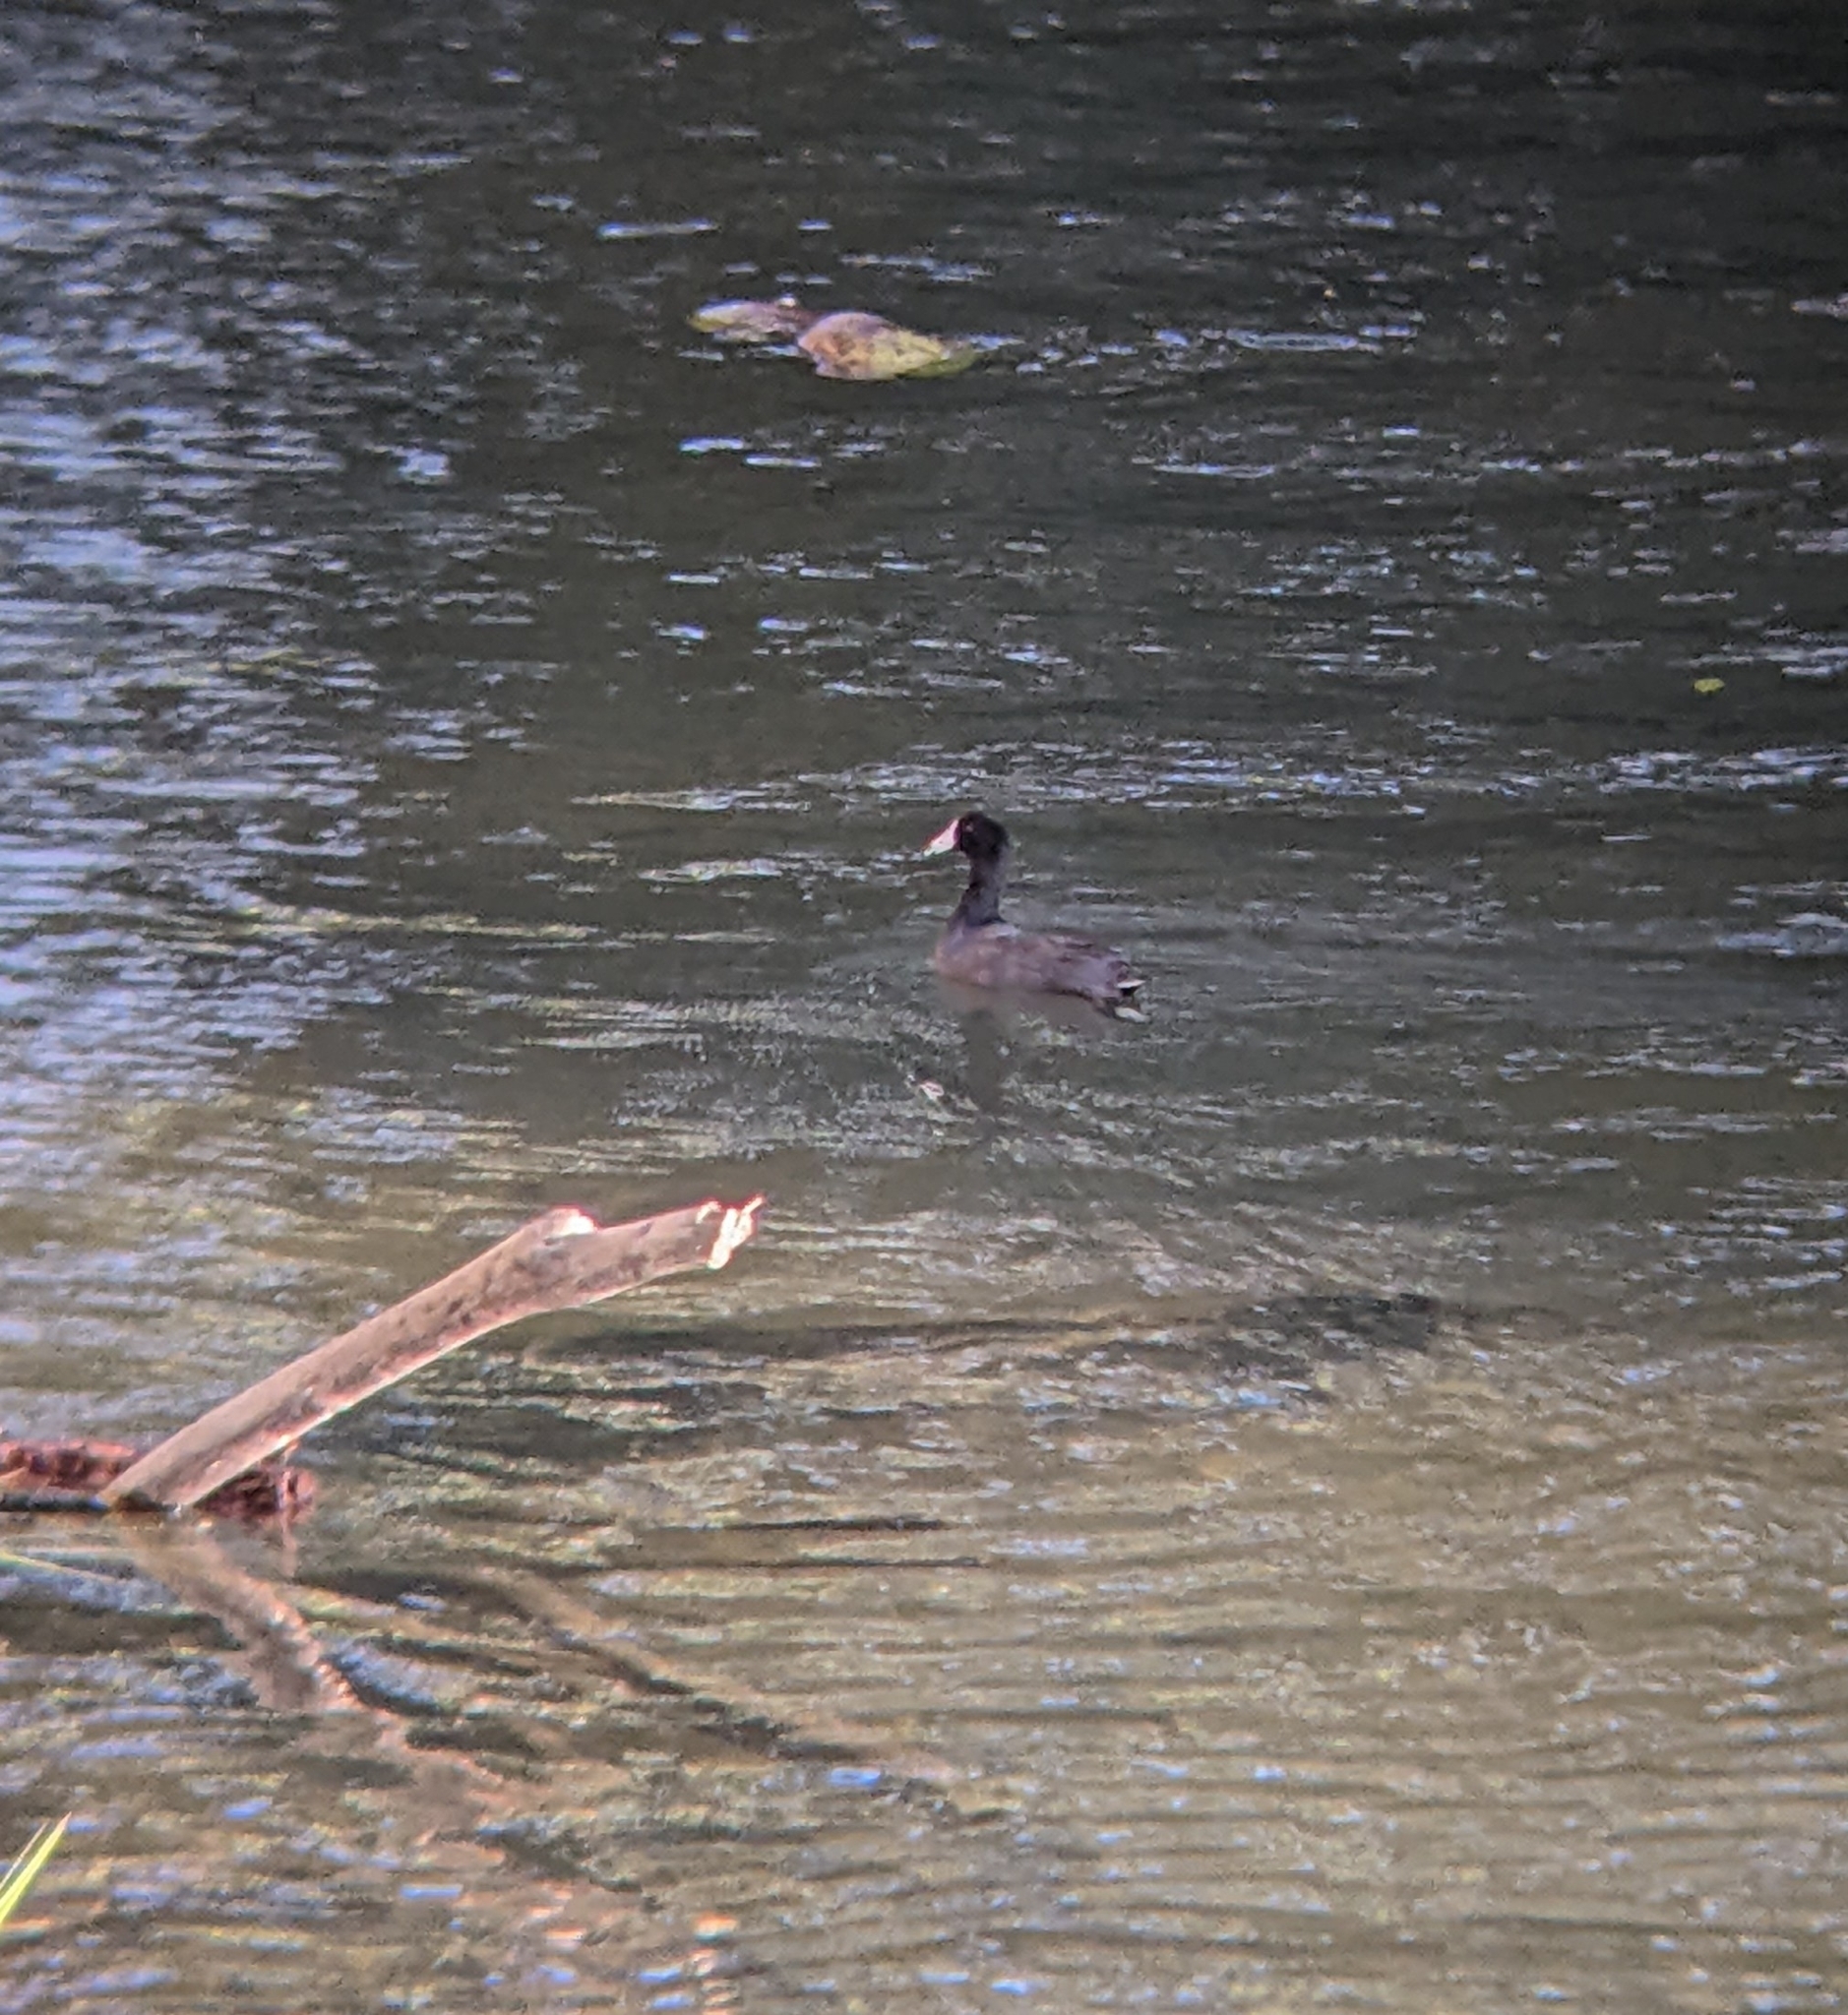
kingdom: Animalia
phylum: Chordata
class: Aves
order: Gruiformes
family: Rallidae
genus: Fulica
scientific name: Fulica americana
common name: American coot
